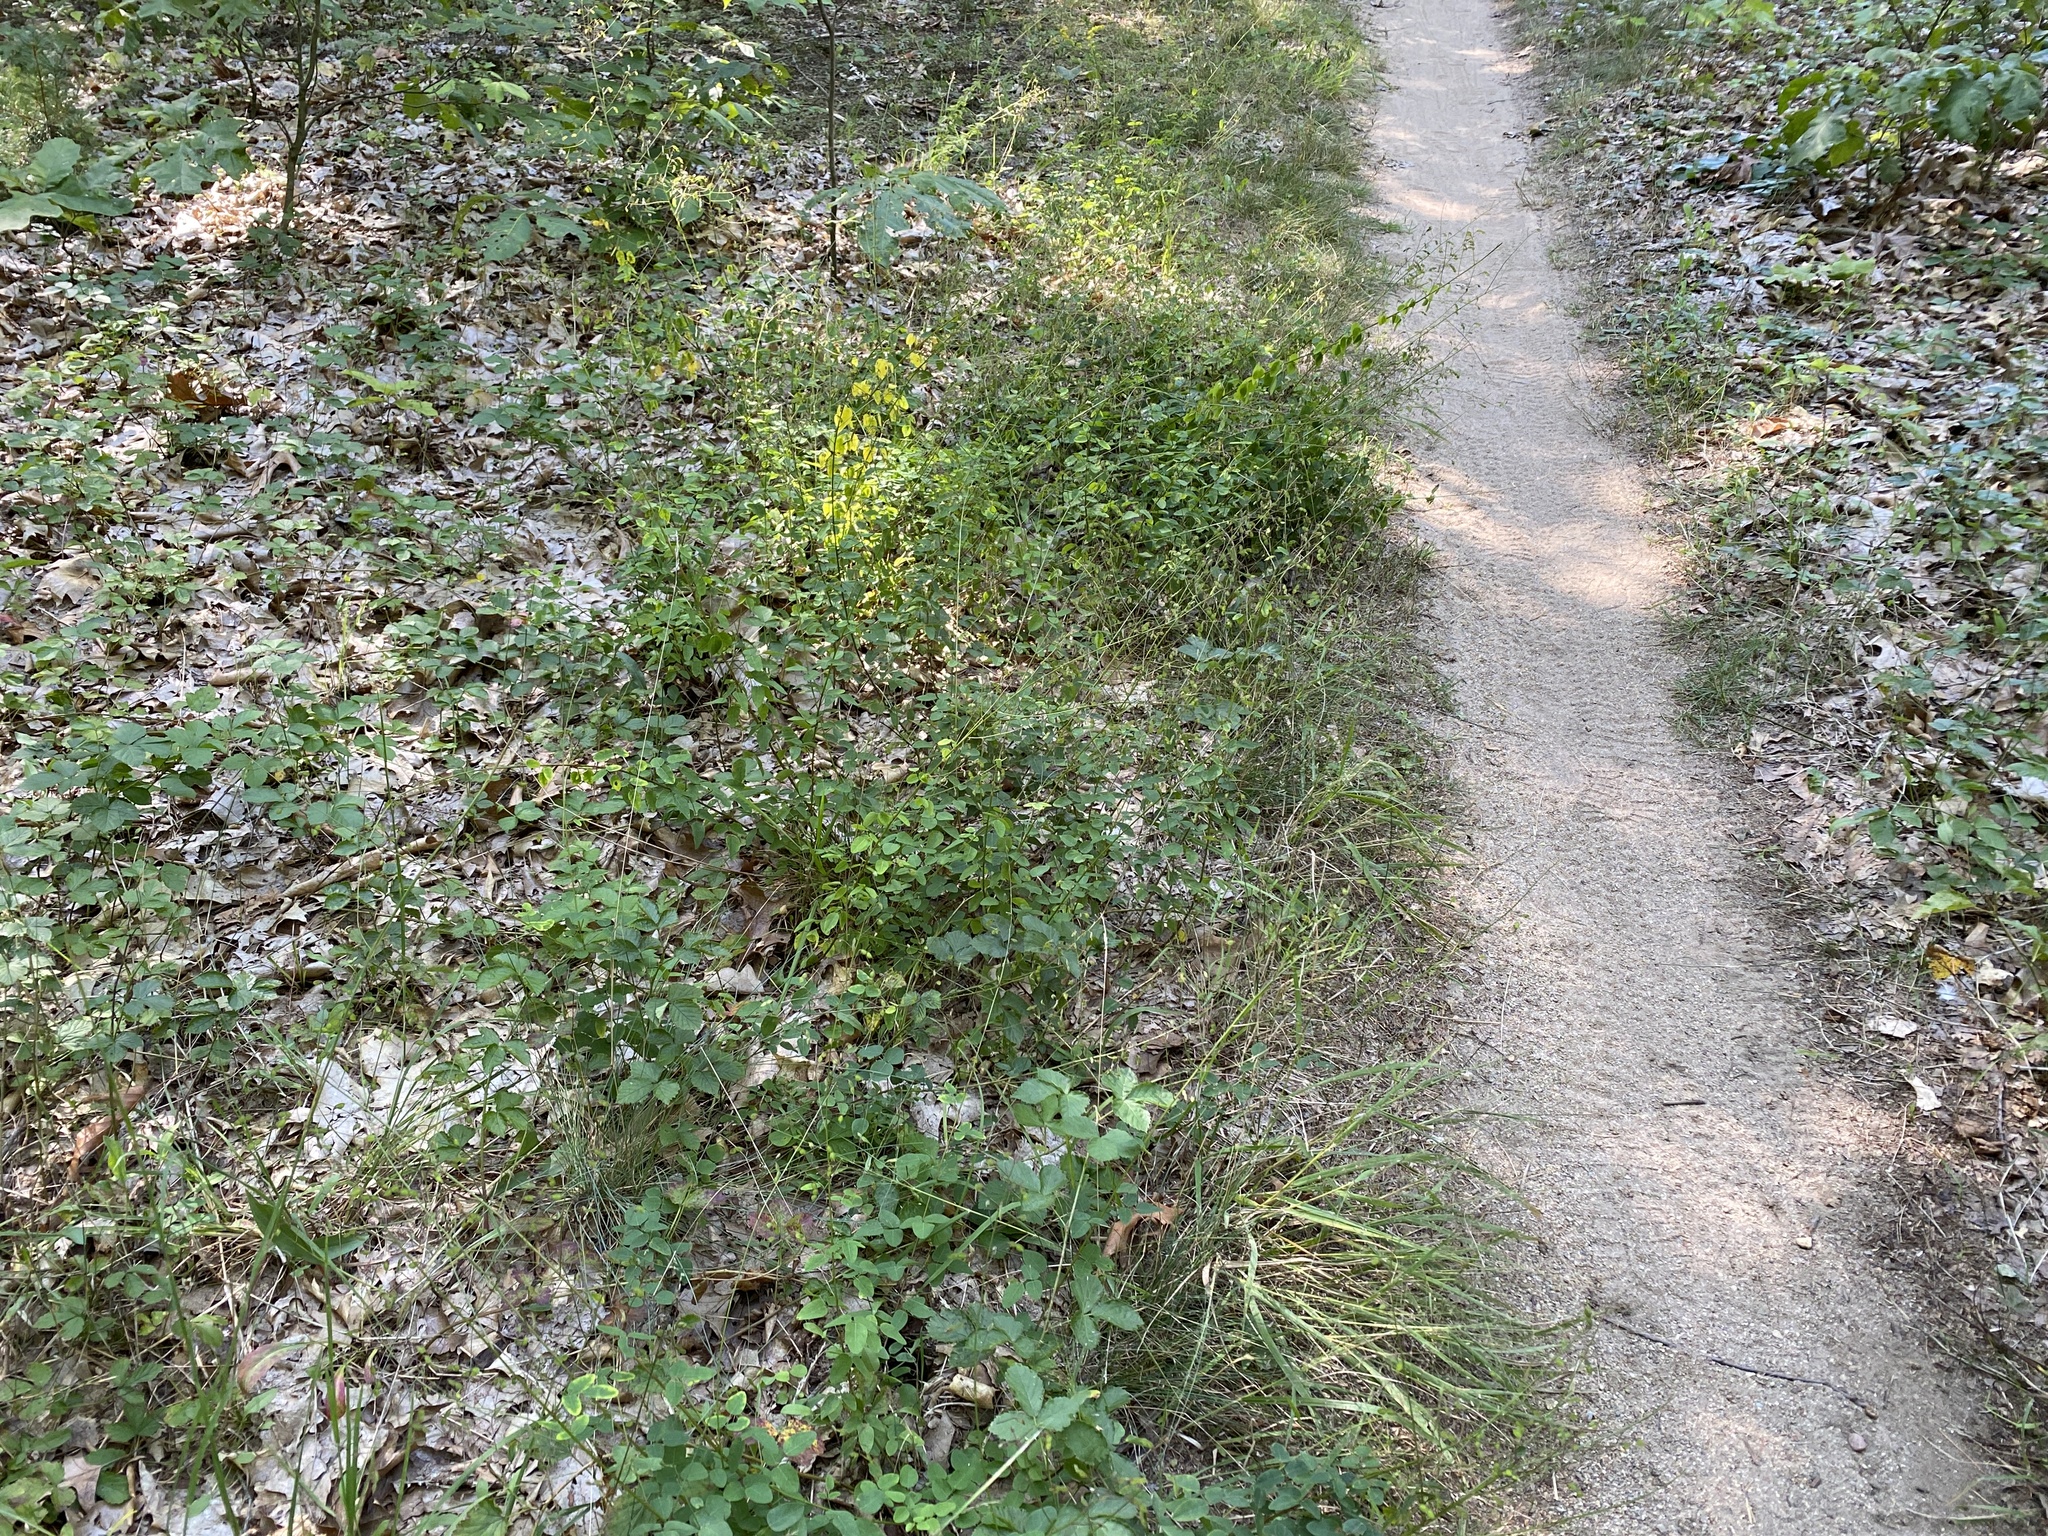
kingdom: Plantae
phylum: Tracheophyta
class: Magnoliopsida
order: Fabales
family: Fabaceae
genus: Desmodium
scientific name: Desmodium ciliare
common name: Hairy small-leaf ticktrefoil
